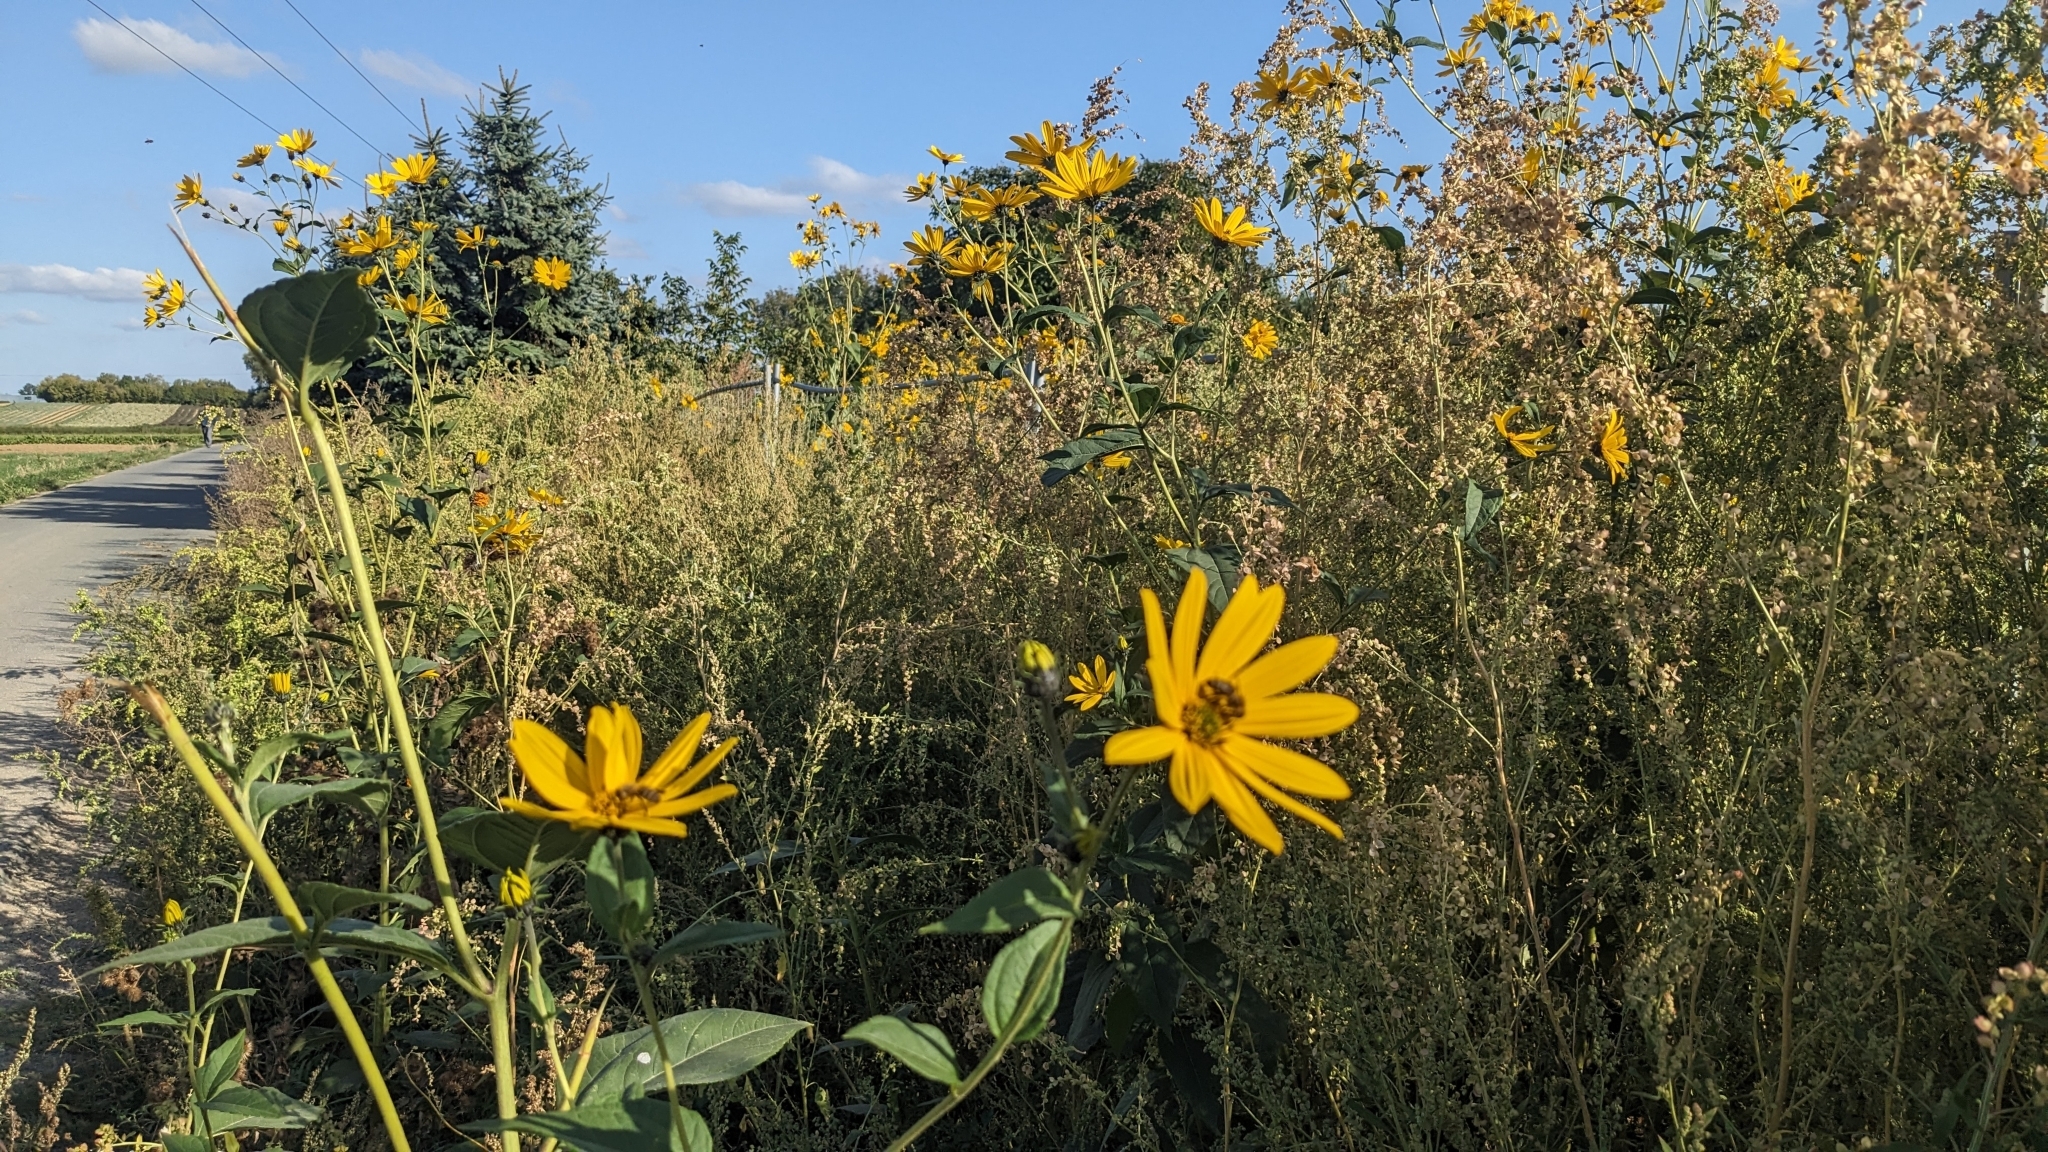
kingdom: Plantae
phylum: Tracheophyta
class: Magnoliopsida
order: Asterales
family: Asteraceae
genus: Helianthus
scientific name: Helianthus tuberosus
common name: Jerusalem artichoke
